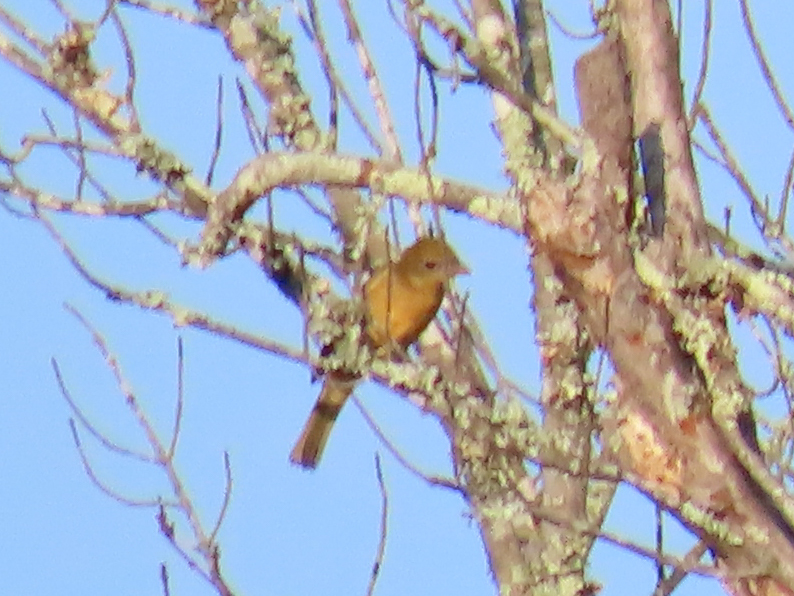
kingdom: Animalia
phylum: Chordata
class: Aves
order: Passeriformes
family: Cardinalidae
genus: Piranga
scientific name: Piranga rubra
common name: Summer tanager
